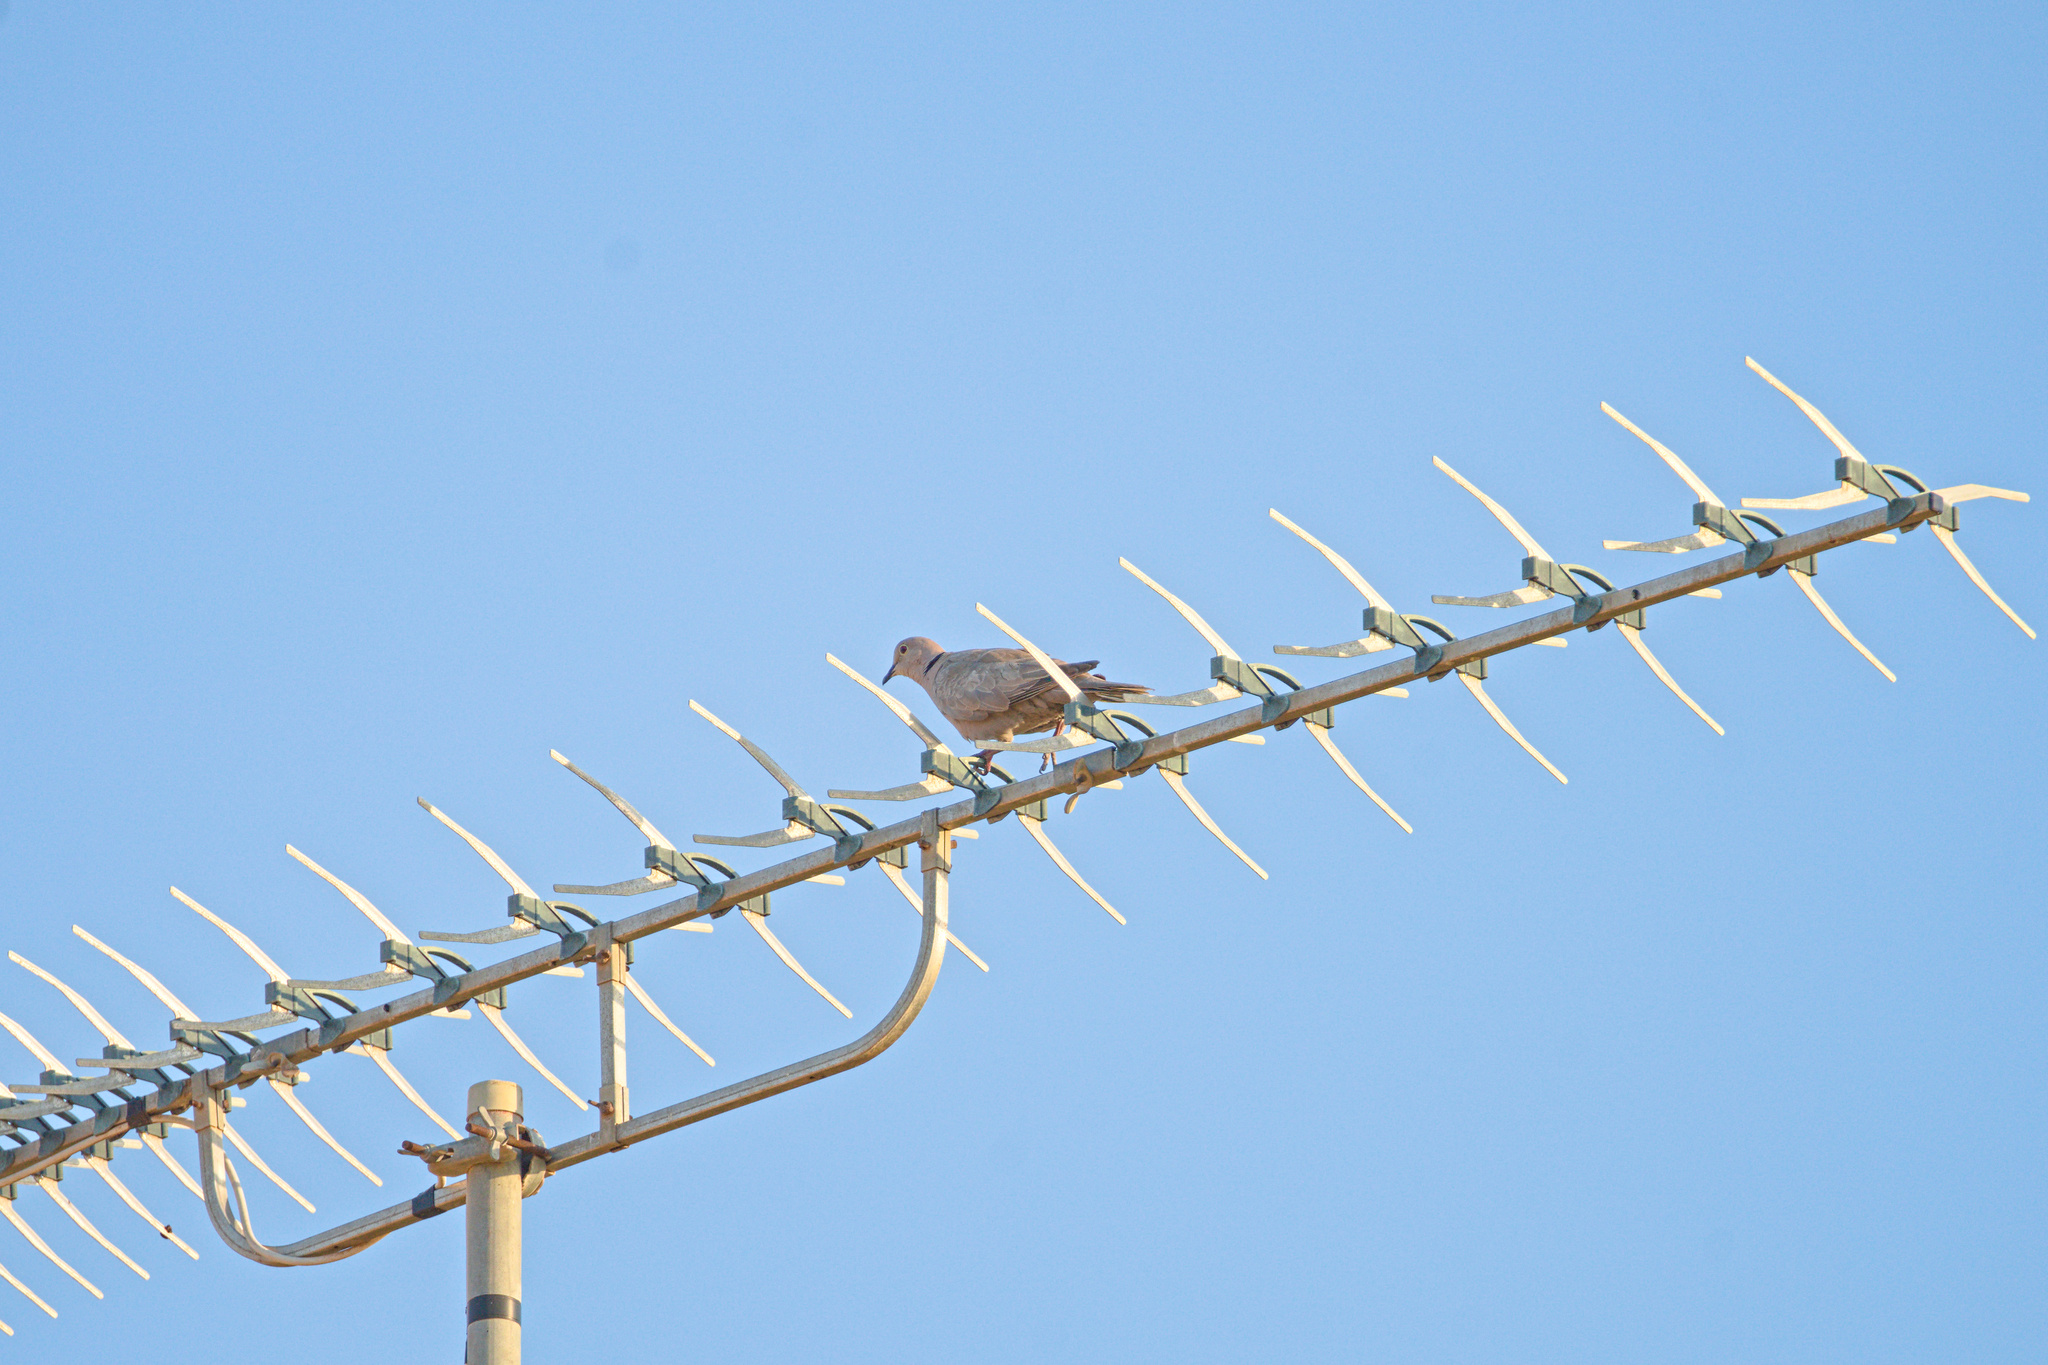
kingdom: Animalia
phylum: Chordata
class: Aves
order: Columbiformes
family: Columbidae
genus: Streptopelia
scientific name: Streptopelia decaocto
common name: Eurasian collared dove
